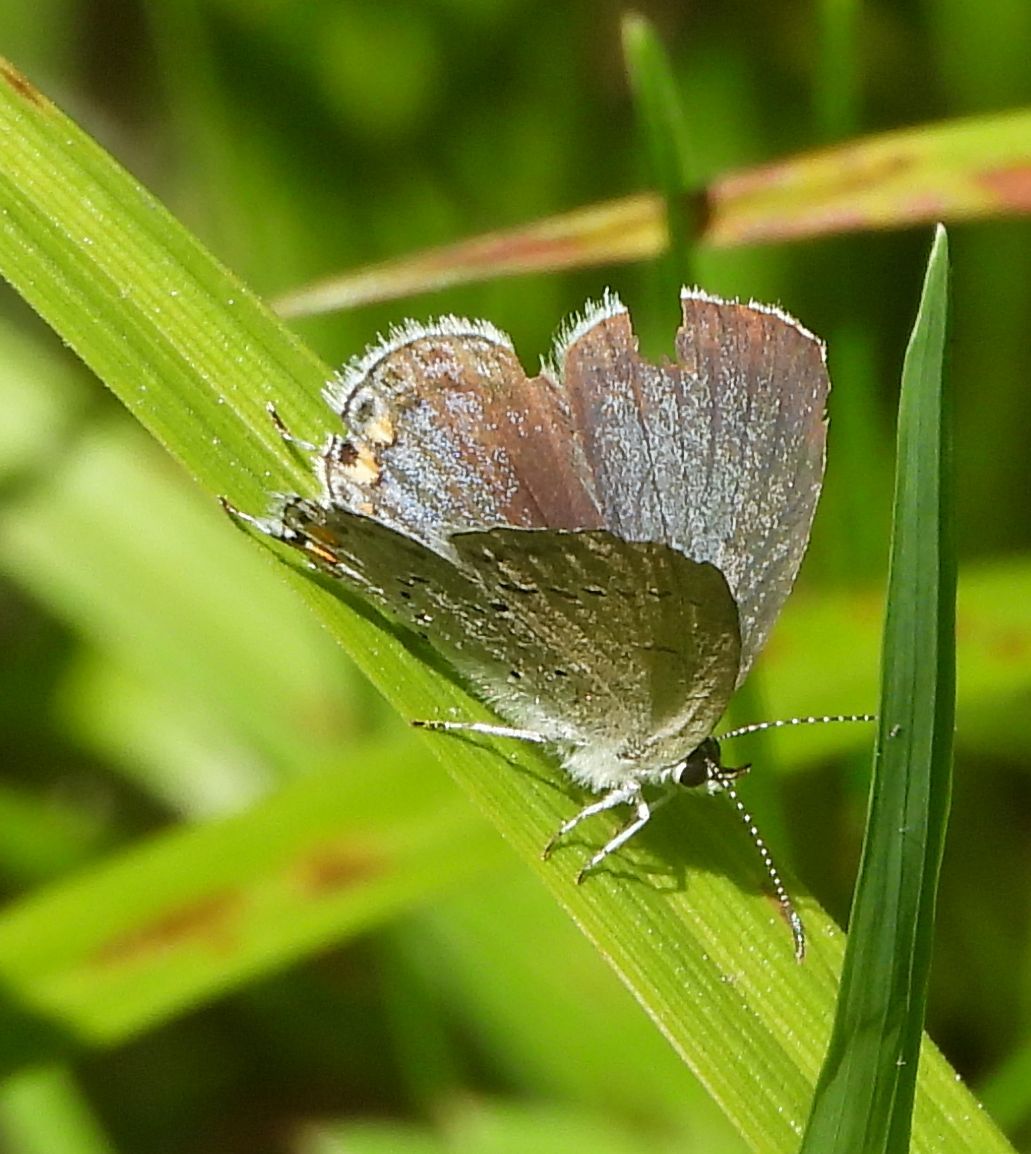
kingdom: Animalia
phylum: Arthropoda
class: Insecta
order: Lepidoptera
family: Lycaenidae
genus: Elkalyce
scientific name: Elkalyce comyntas
